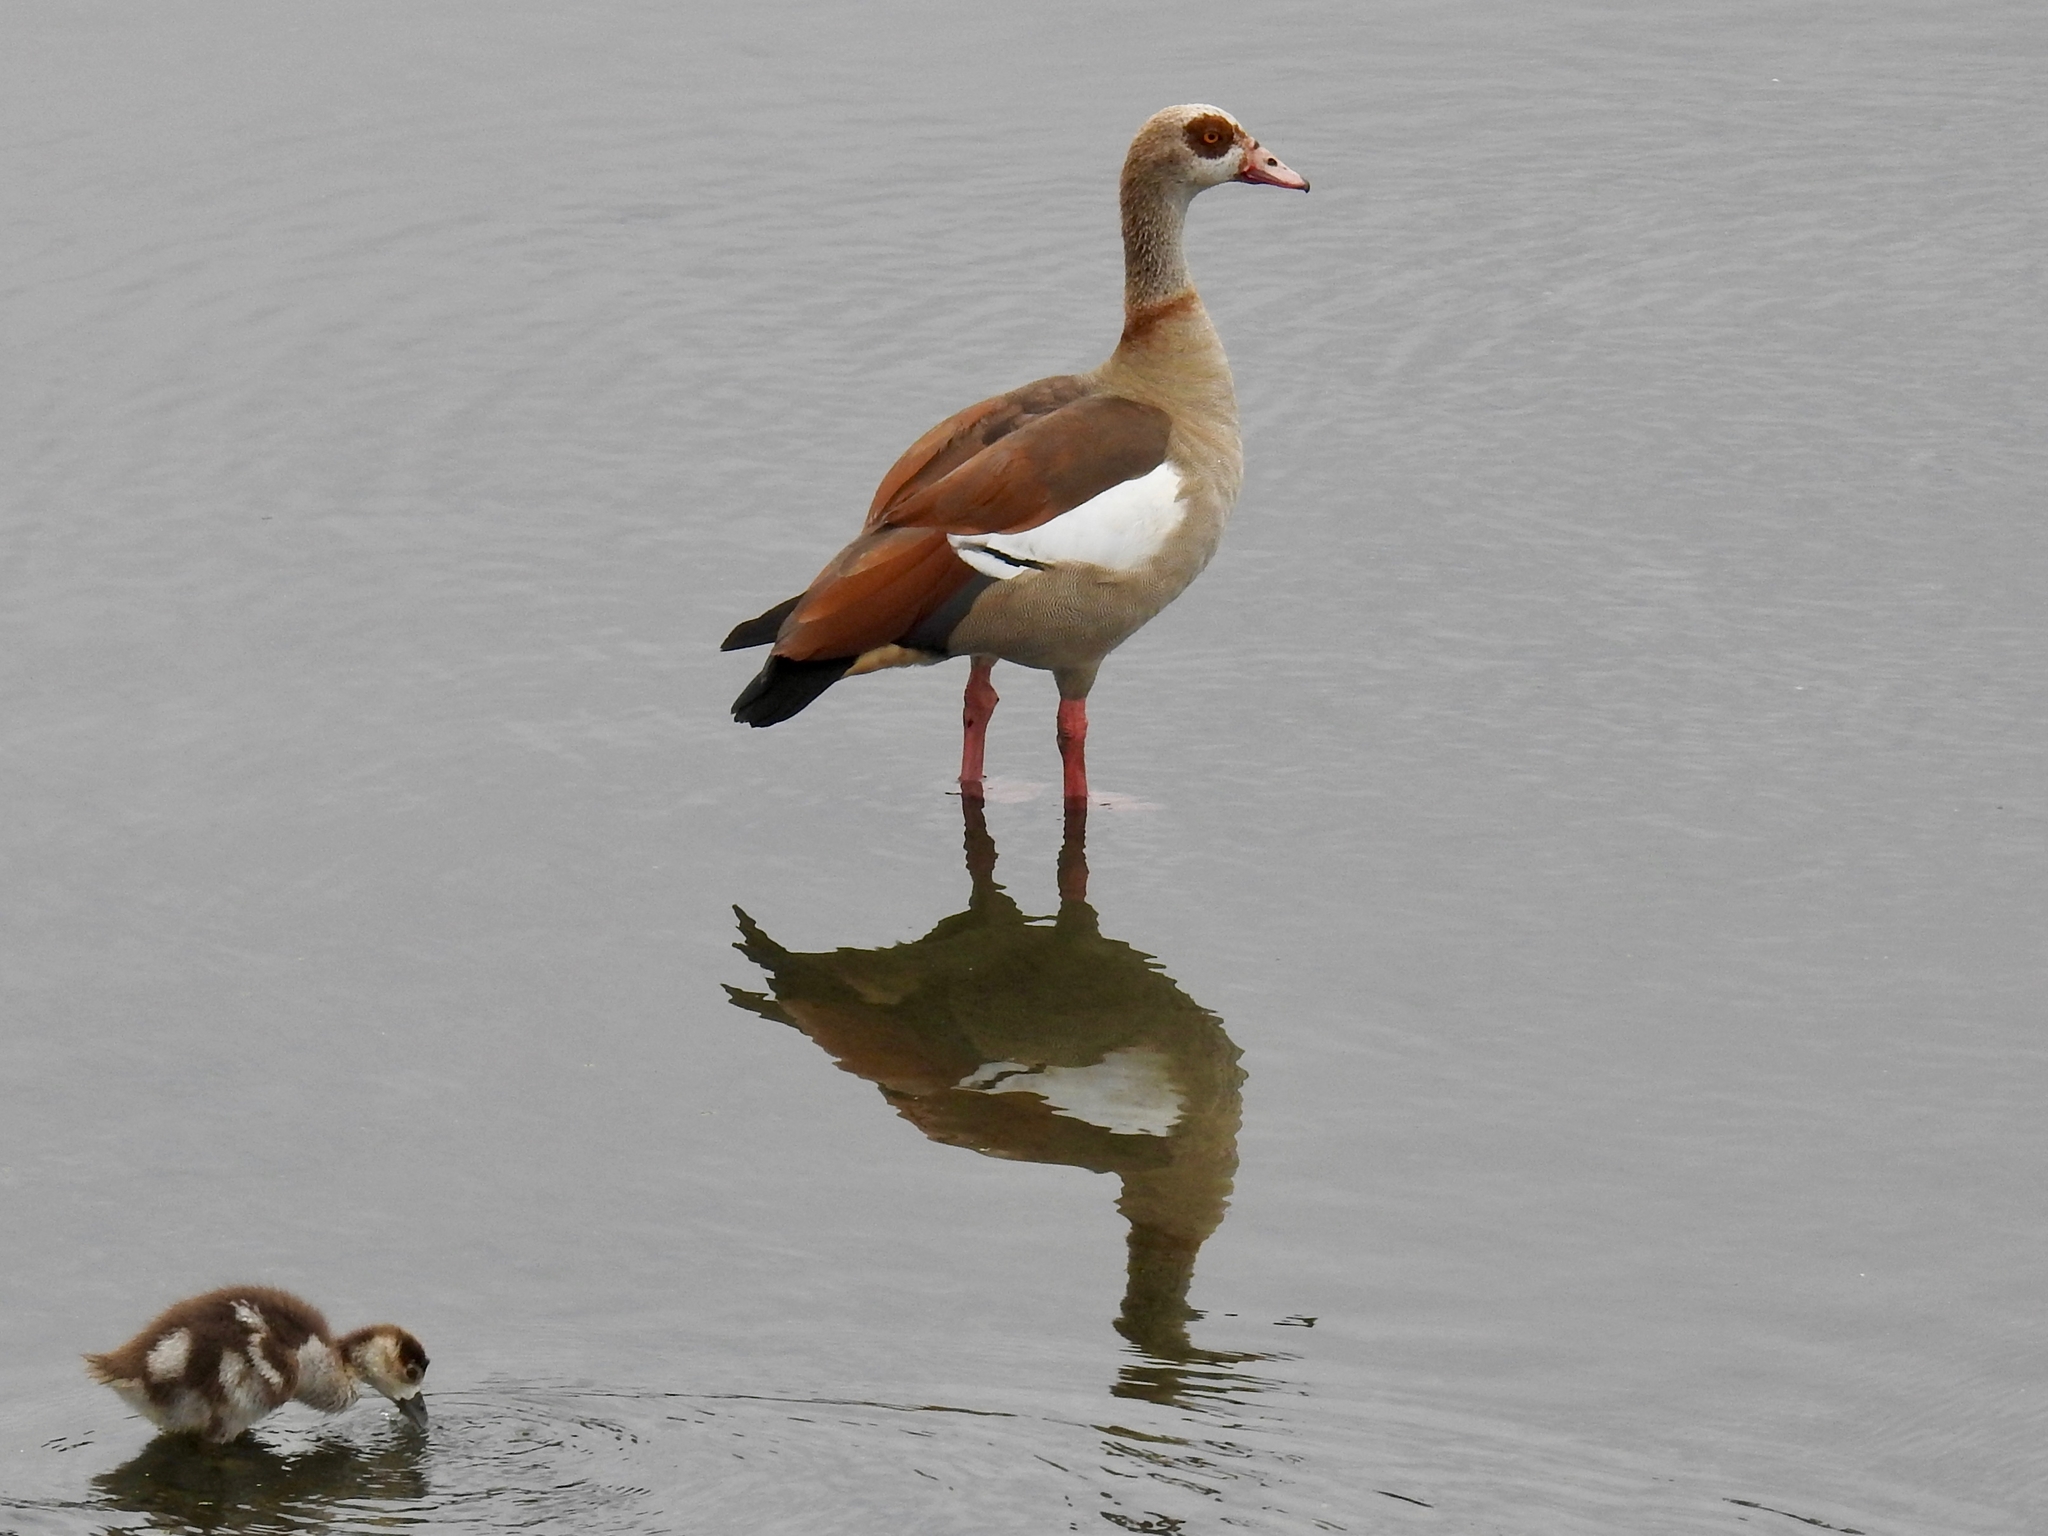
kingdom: Animalia
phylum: Chordata
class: Aves
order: Anseriformes
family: Anatidae
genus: Alopochen
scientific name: Alopochen aegyptiaca
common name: Egyptian goose
